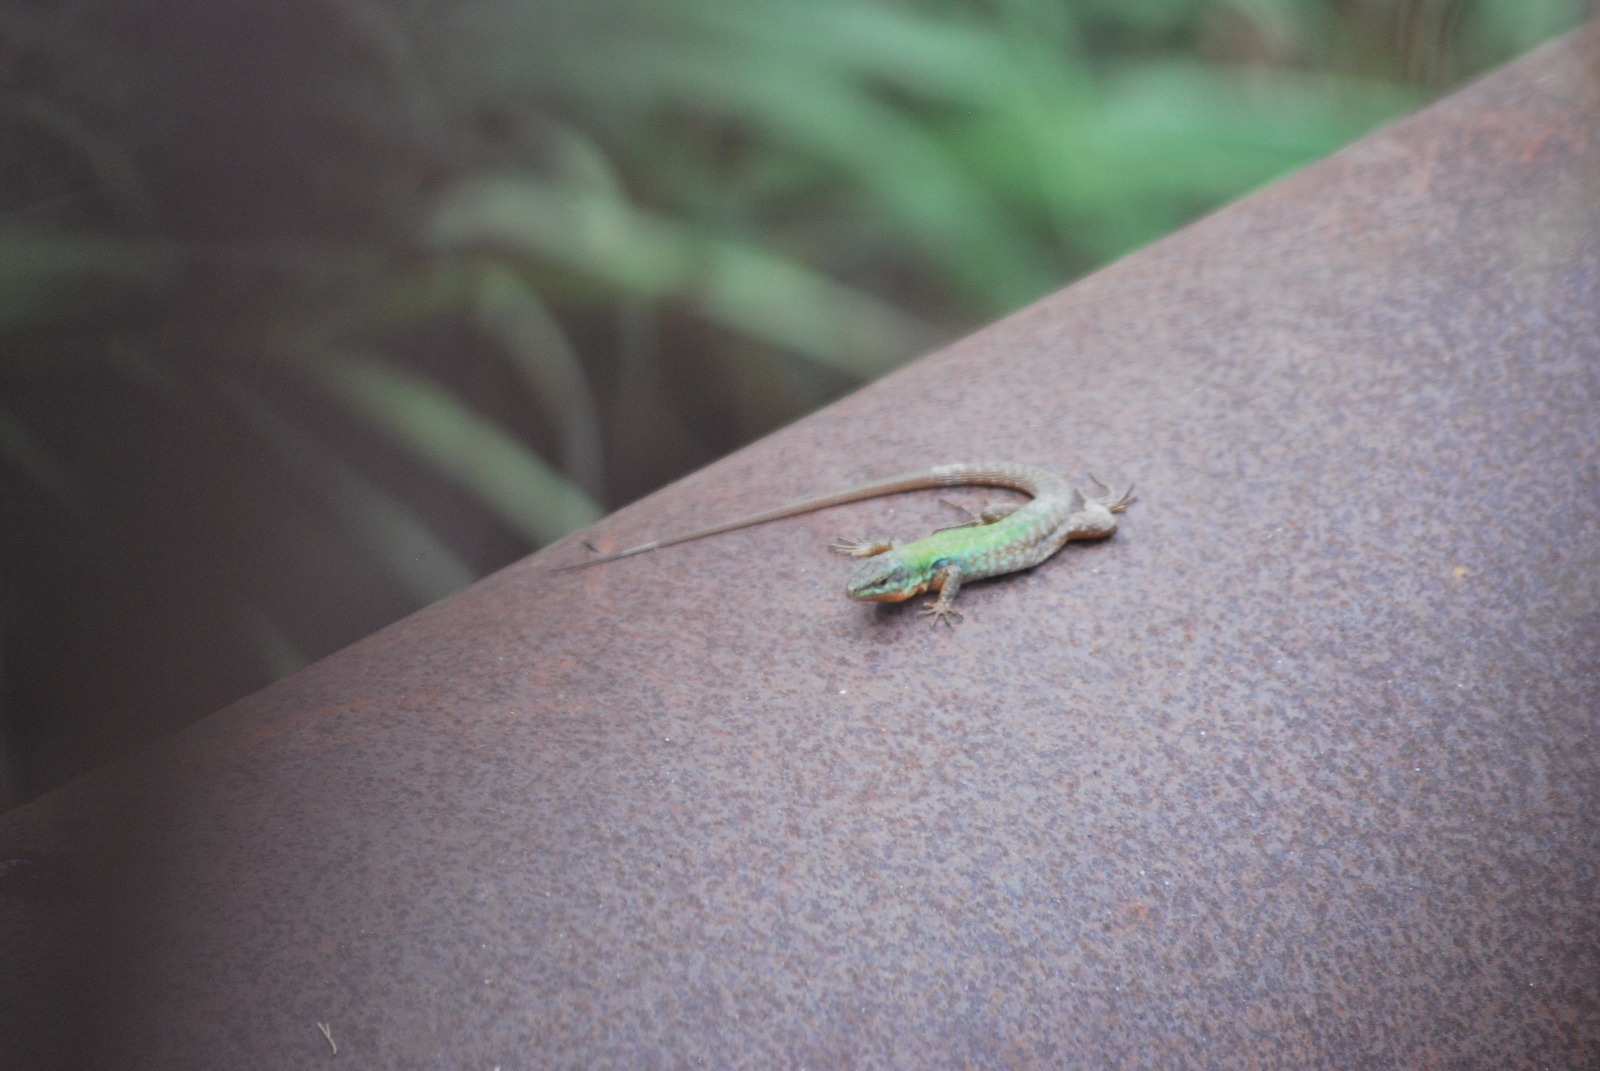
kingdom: Animalia
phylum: Chordata
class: Squamata
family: Lacertidae
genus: Podarcis
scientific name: Podarcis siculus
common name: Italian wall lizard
